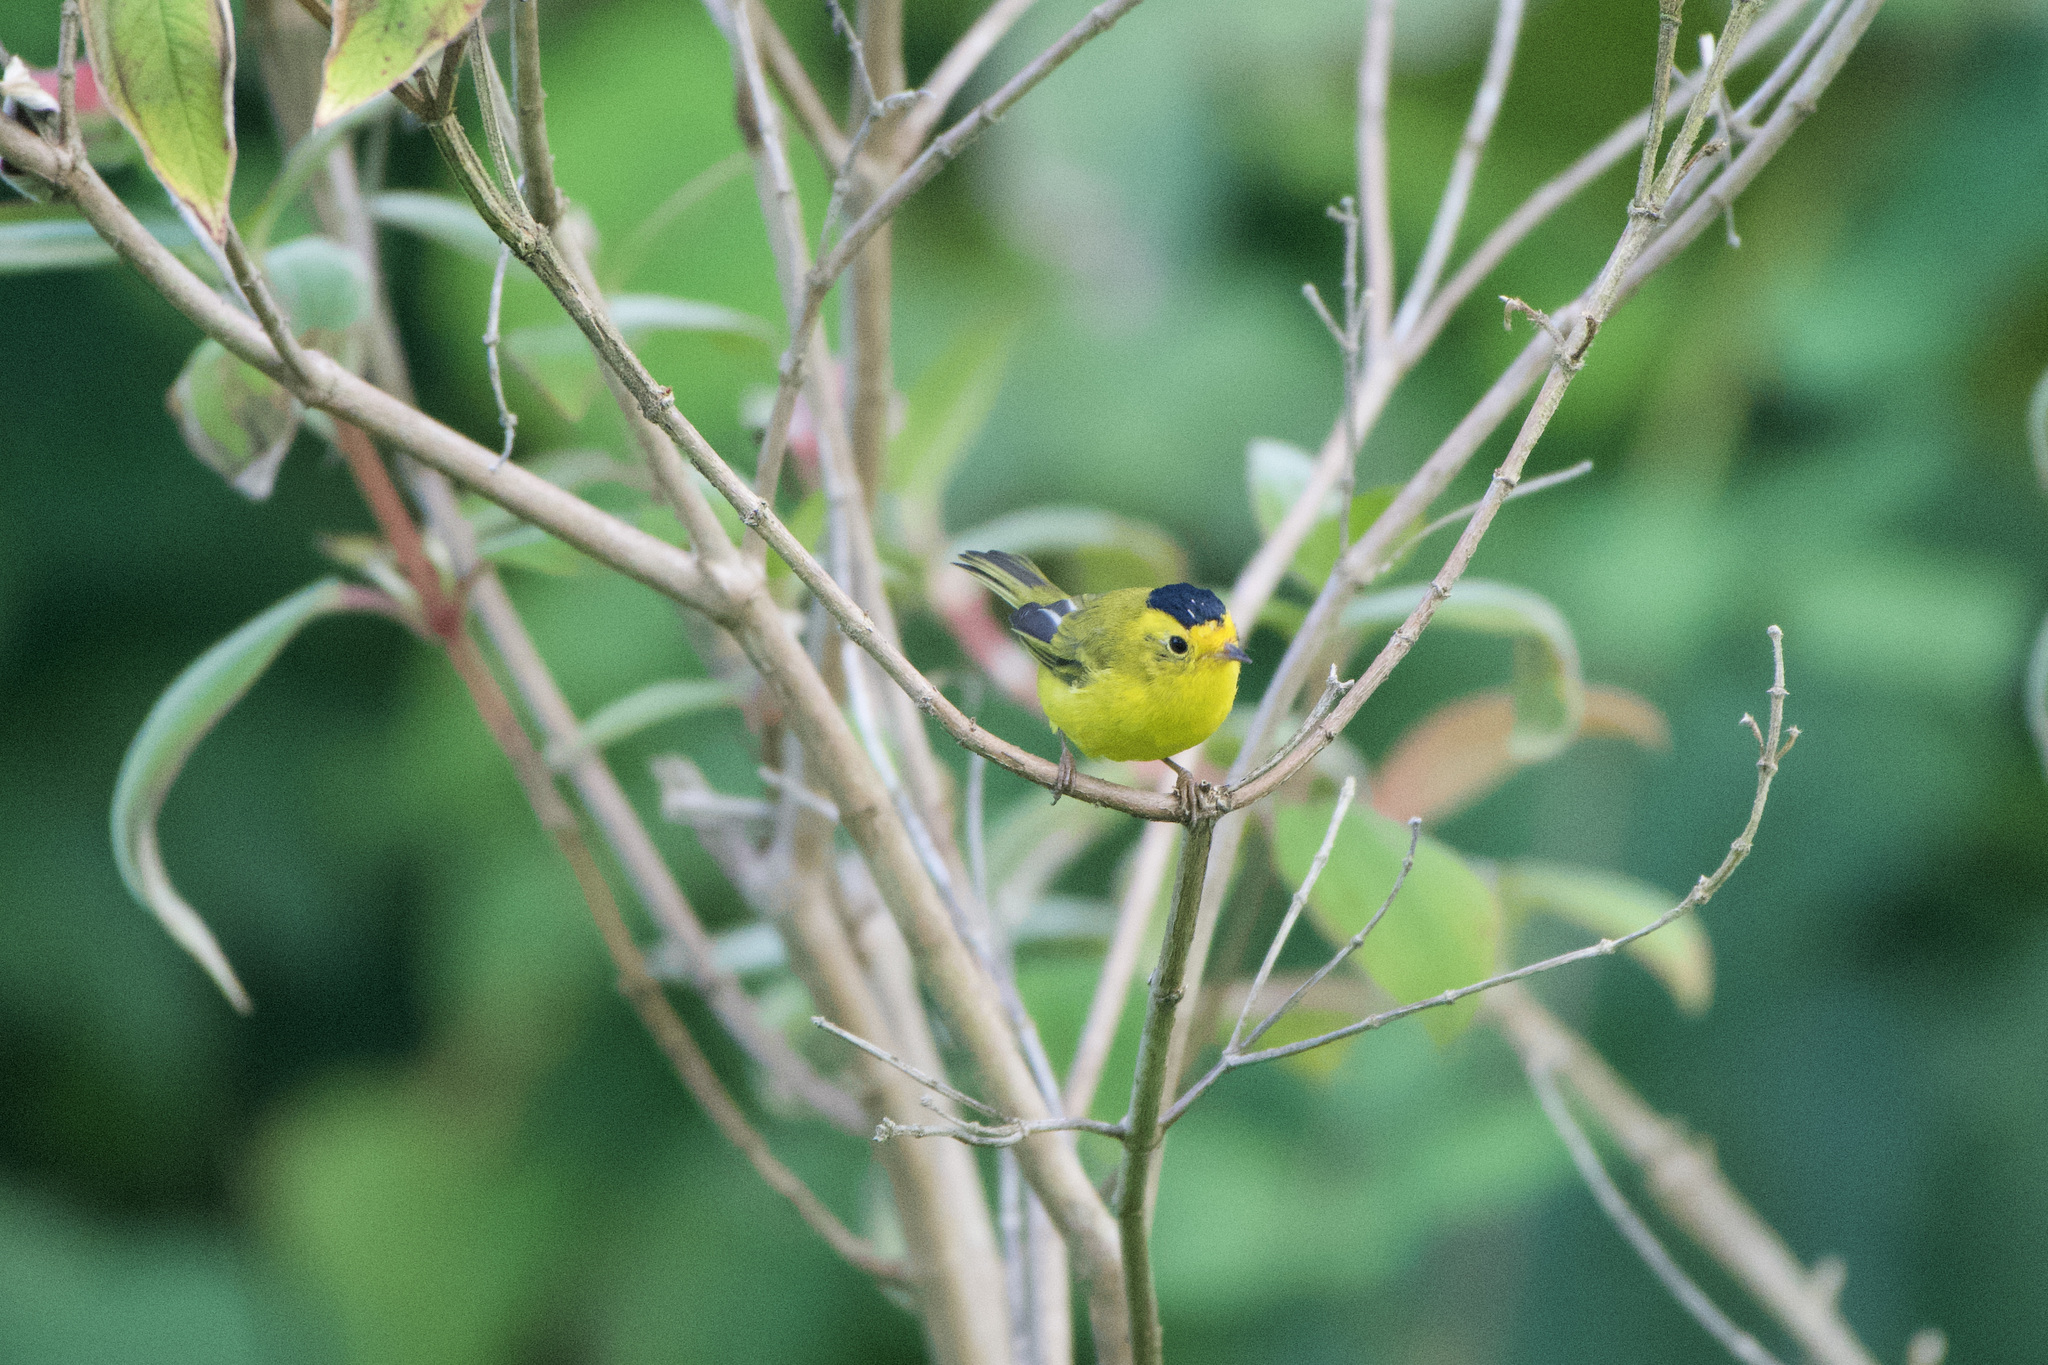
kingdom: Animalia
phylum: Chordata
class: Aves
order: Passeriformes
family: Parulidae
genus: Cardellina
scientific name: Cardellina pusilla
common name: Wilson's warbler
